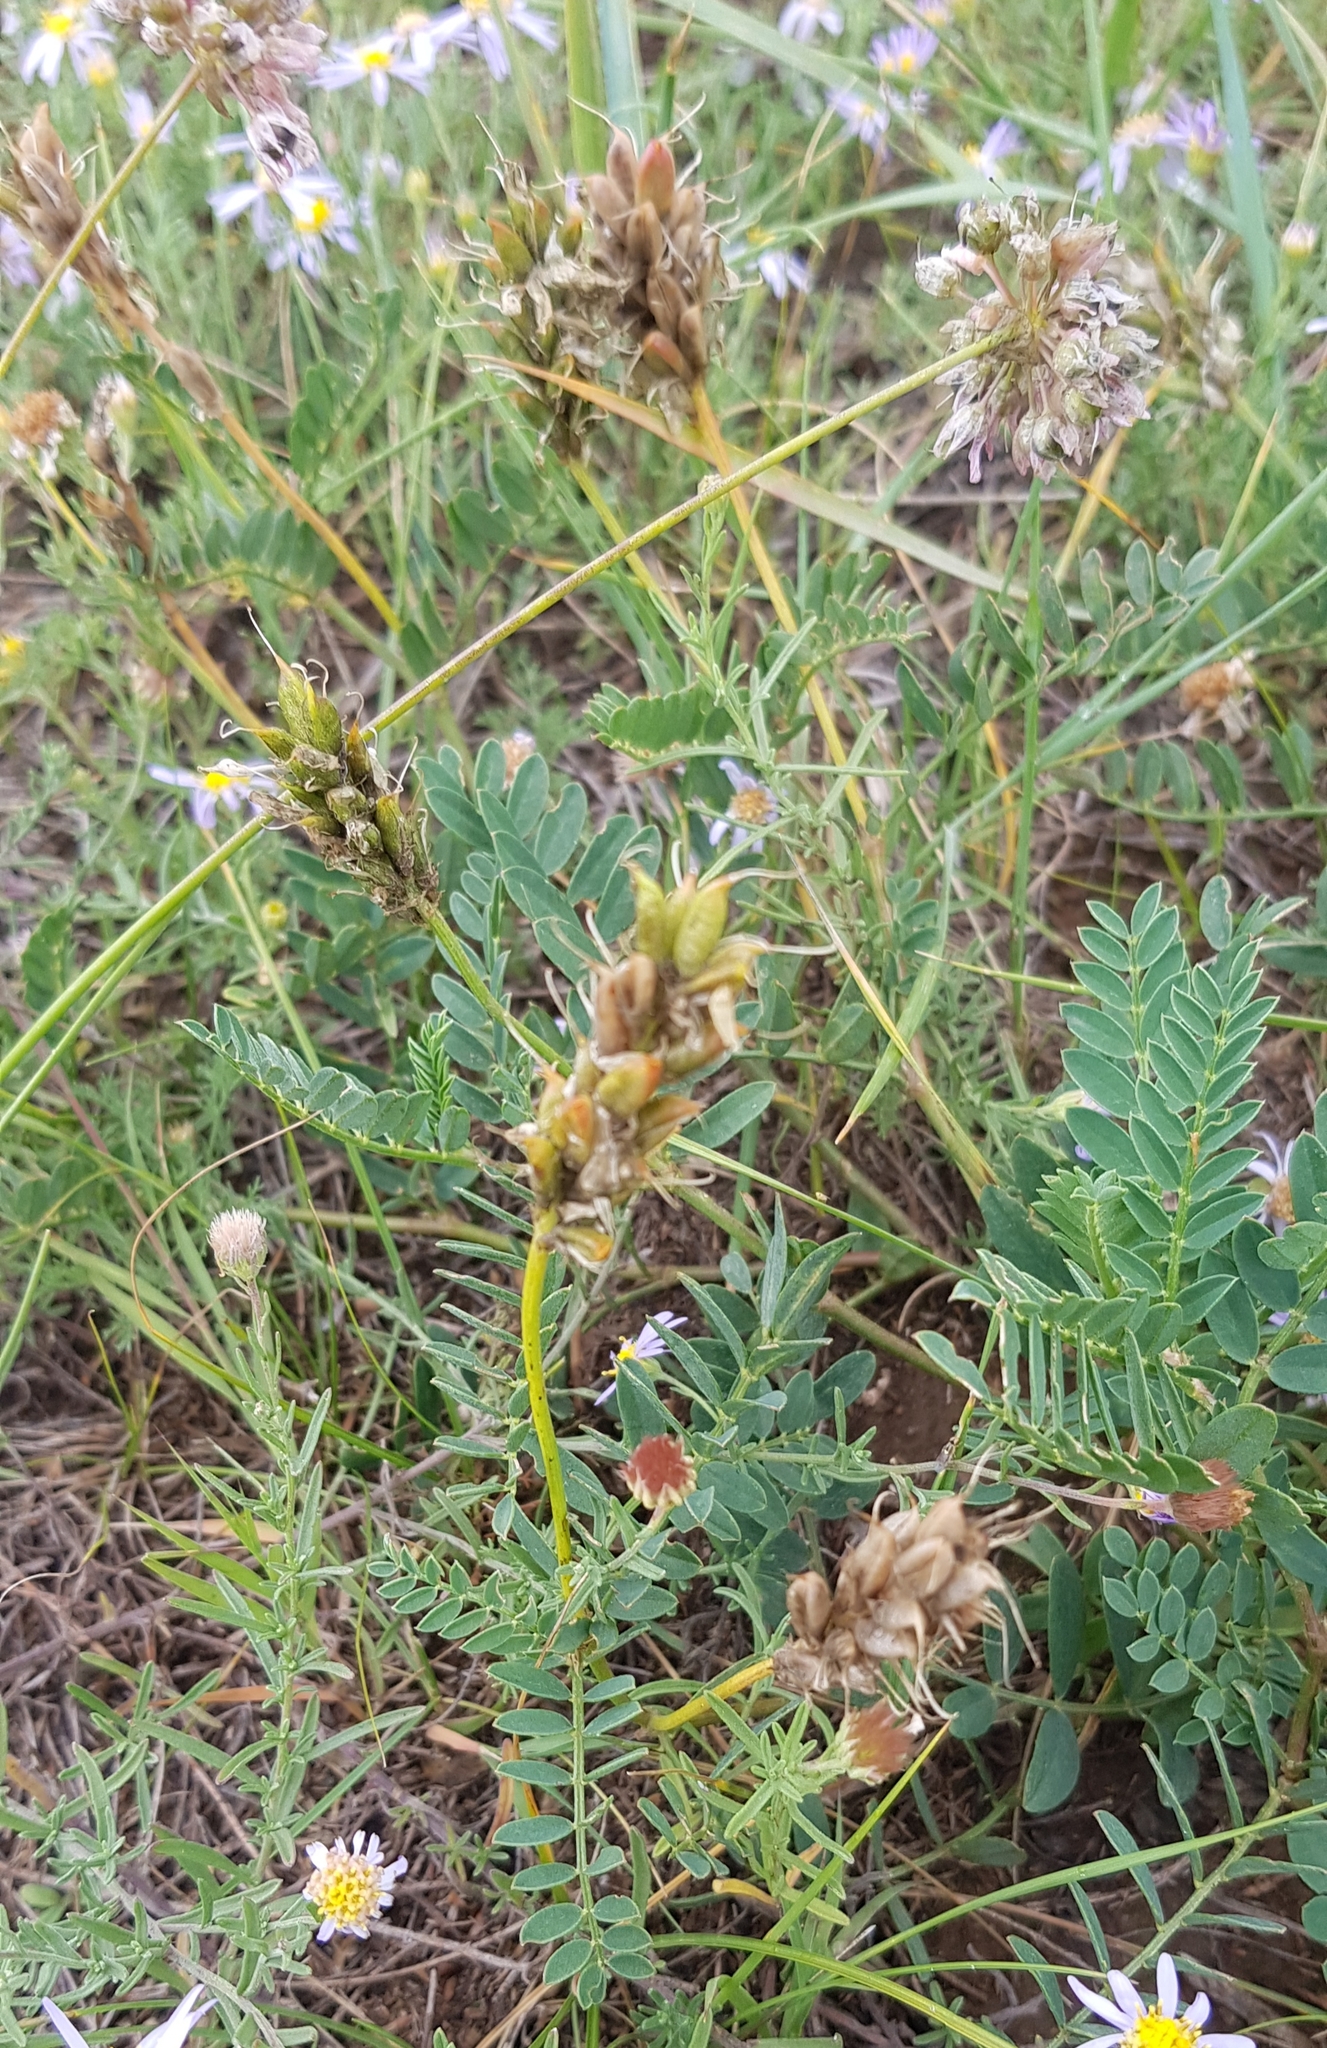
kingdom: Plantae
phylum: Tracheophyta
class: Magnoliopsida
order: Fabales
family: Fabaceae
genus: Astragalus
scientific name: Astragalus laxmannii
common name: Laxmann's milk-vetch
